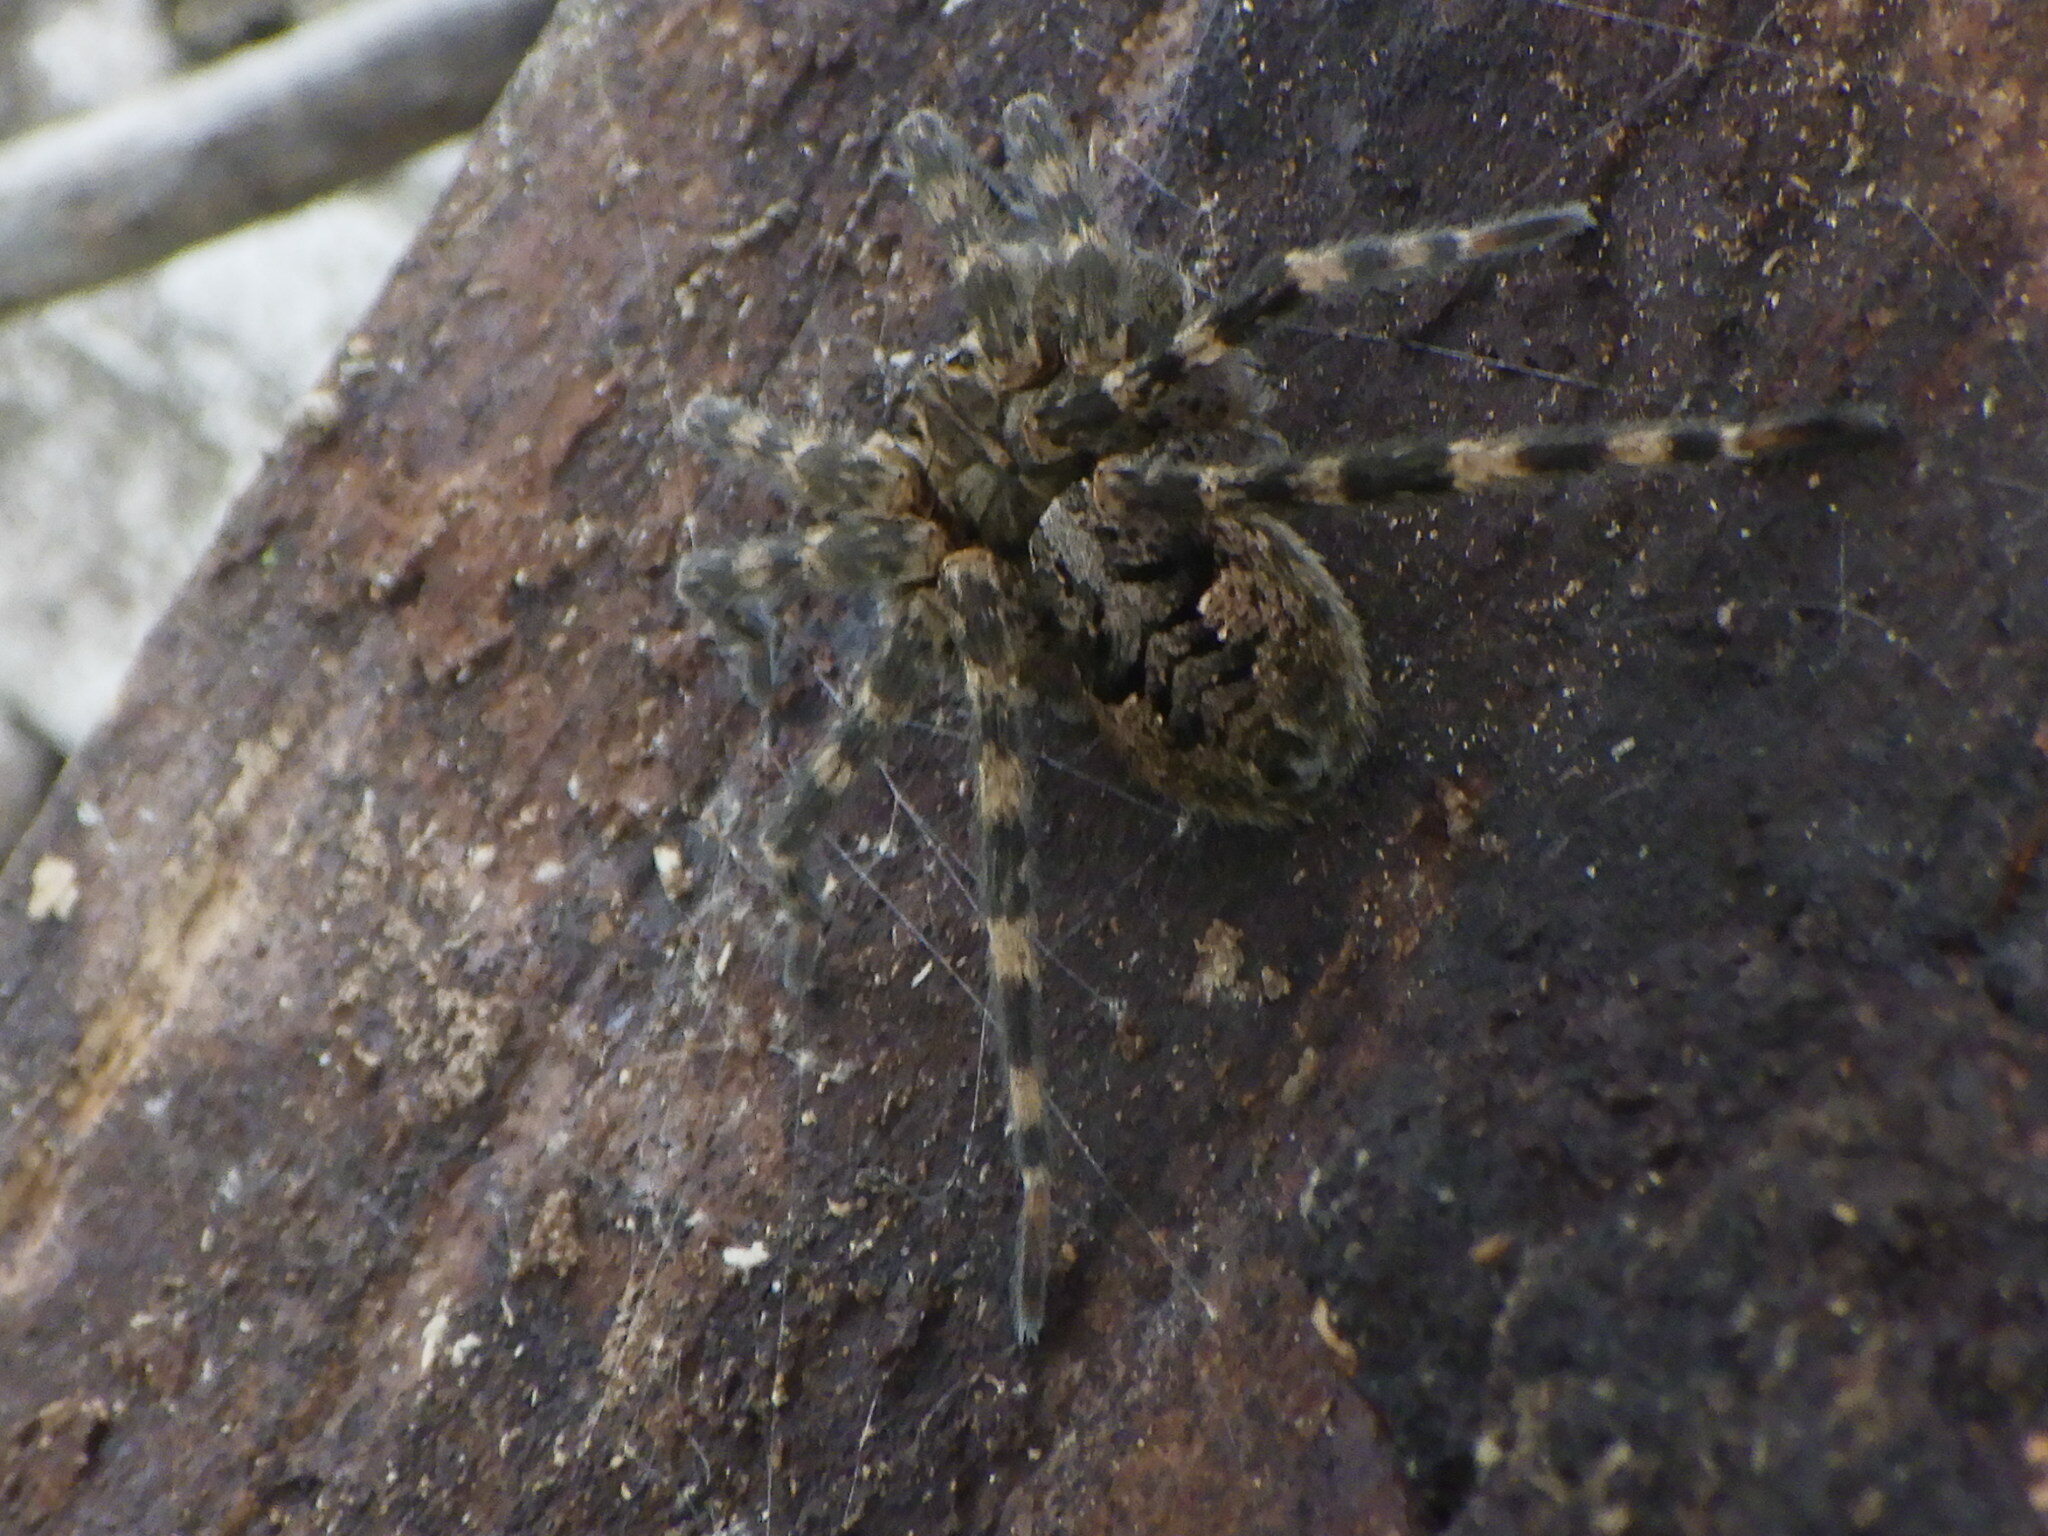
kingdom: Animalia
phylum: Arthropoda
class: Arachnida
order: Araneae
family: Pisauridae
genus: Dolomedes
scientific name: Dolomedes tenebrosus
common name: Dark fishing spider
